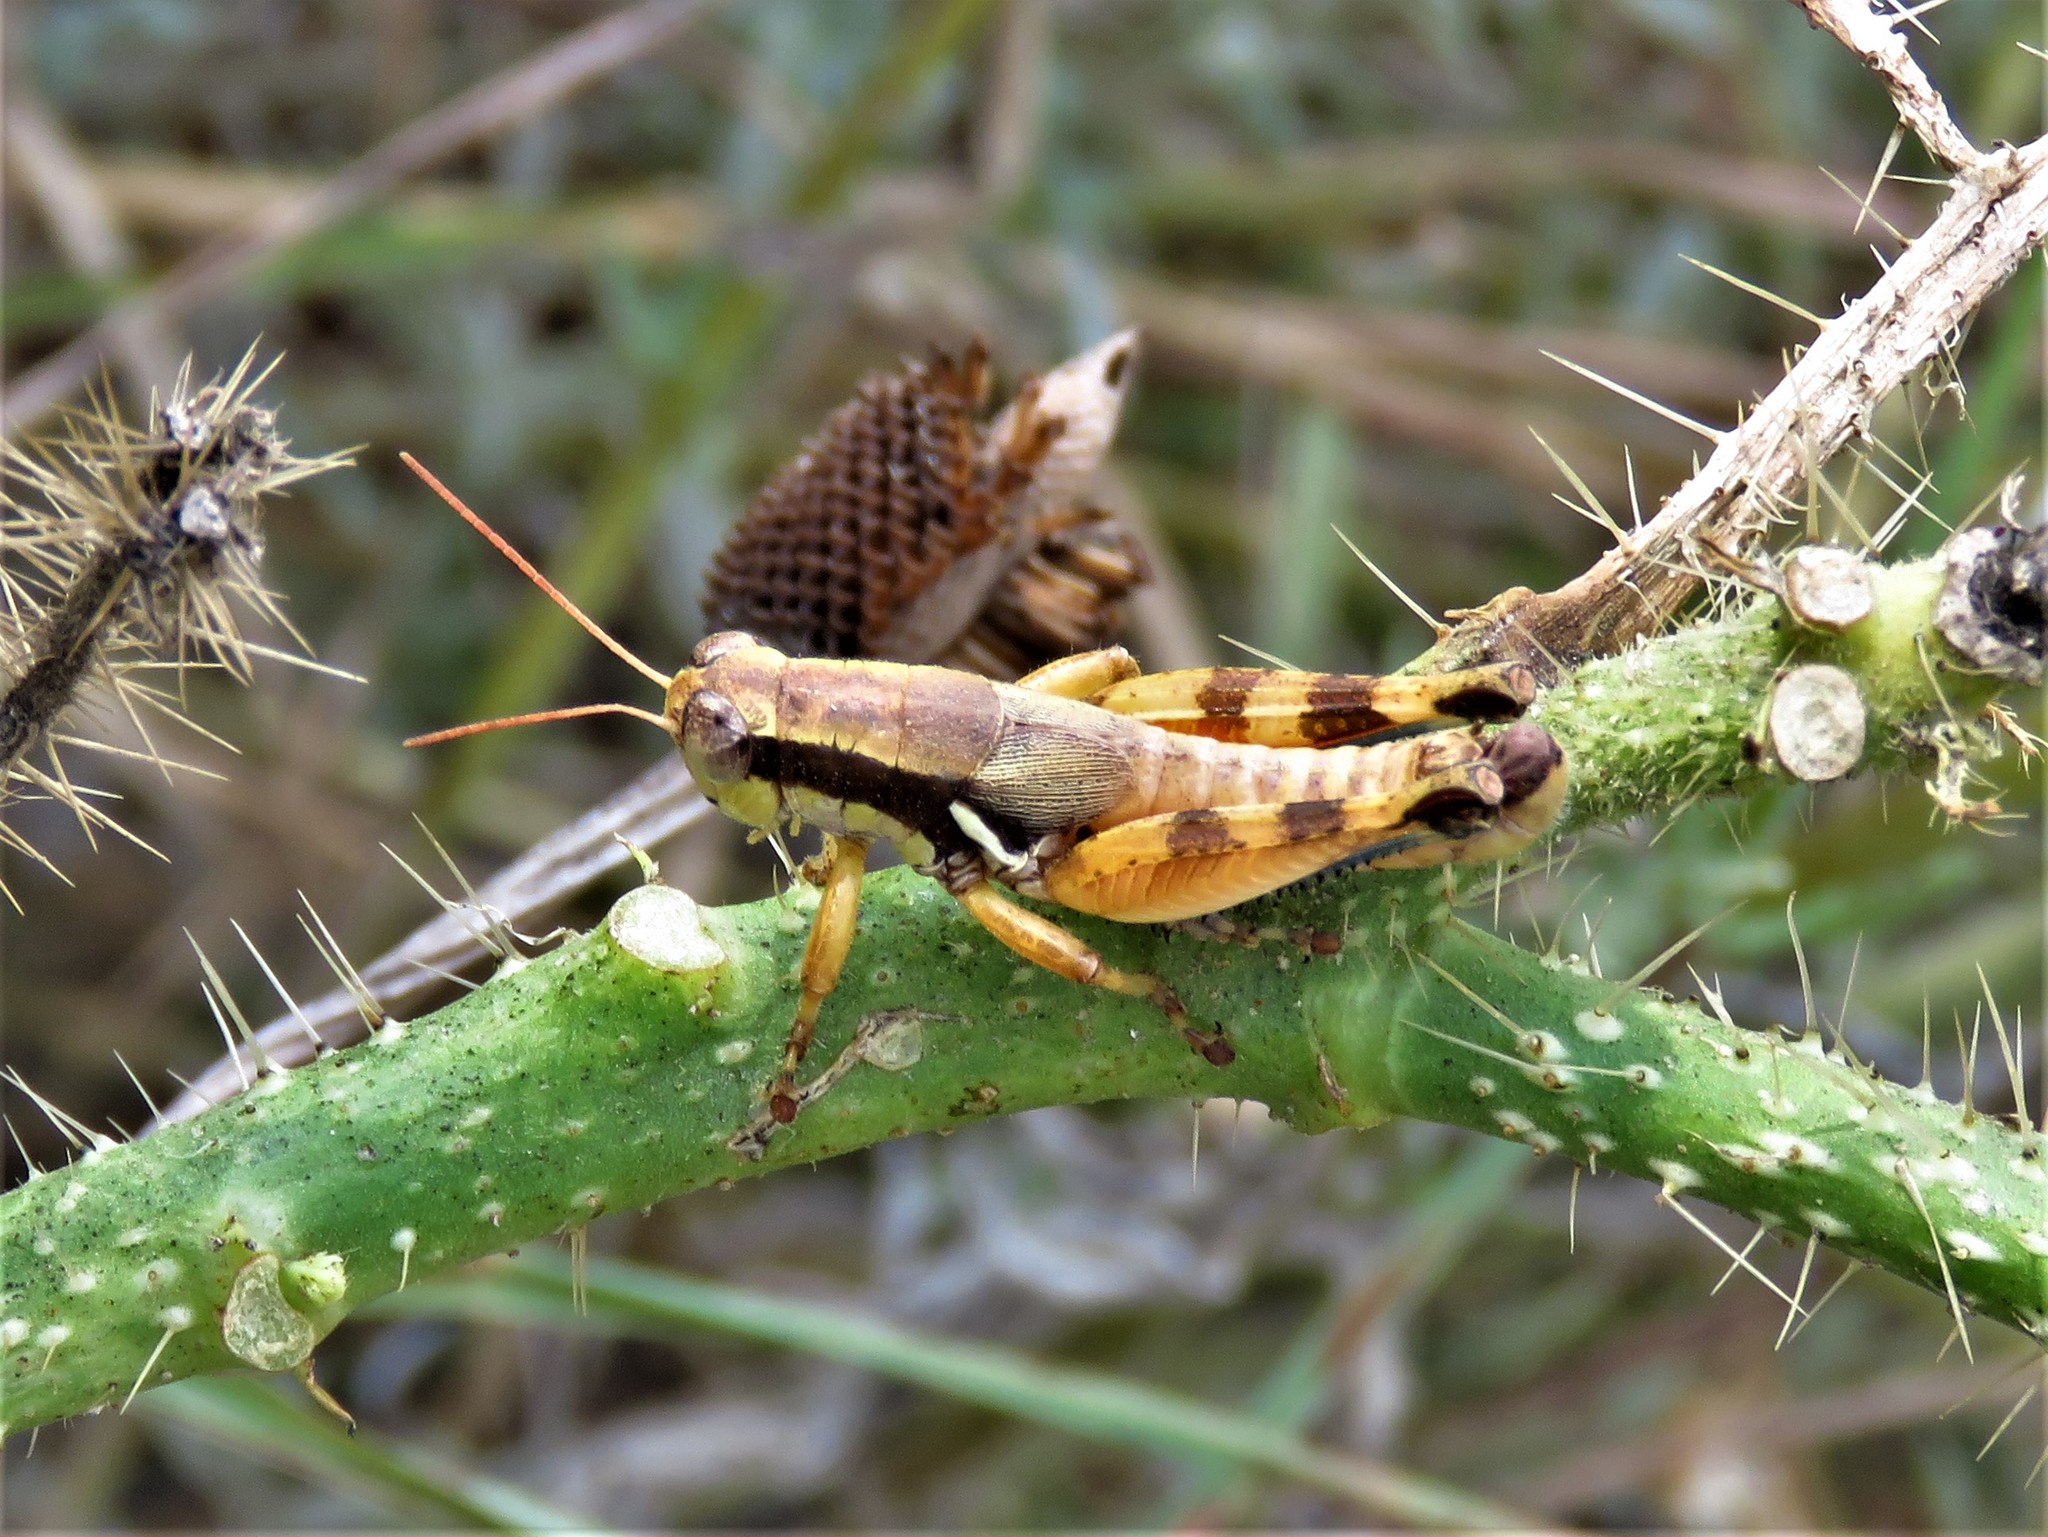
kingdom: Animalia
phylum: Arthropoda
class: Insecta
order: Orthoptera
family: Acrididae
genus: Melanoplus
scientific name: Melanoplus flabellatus
